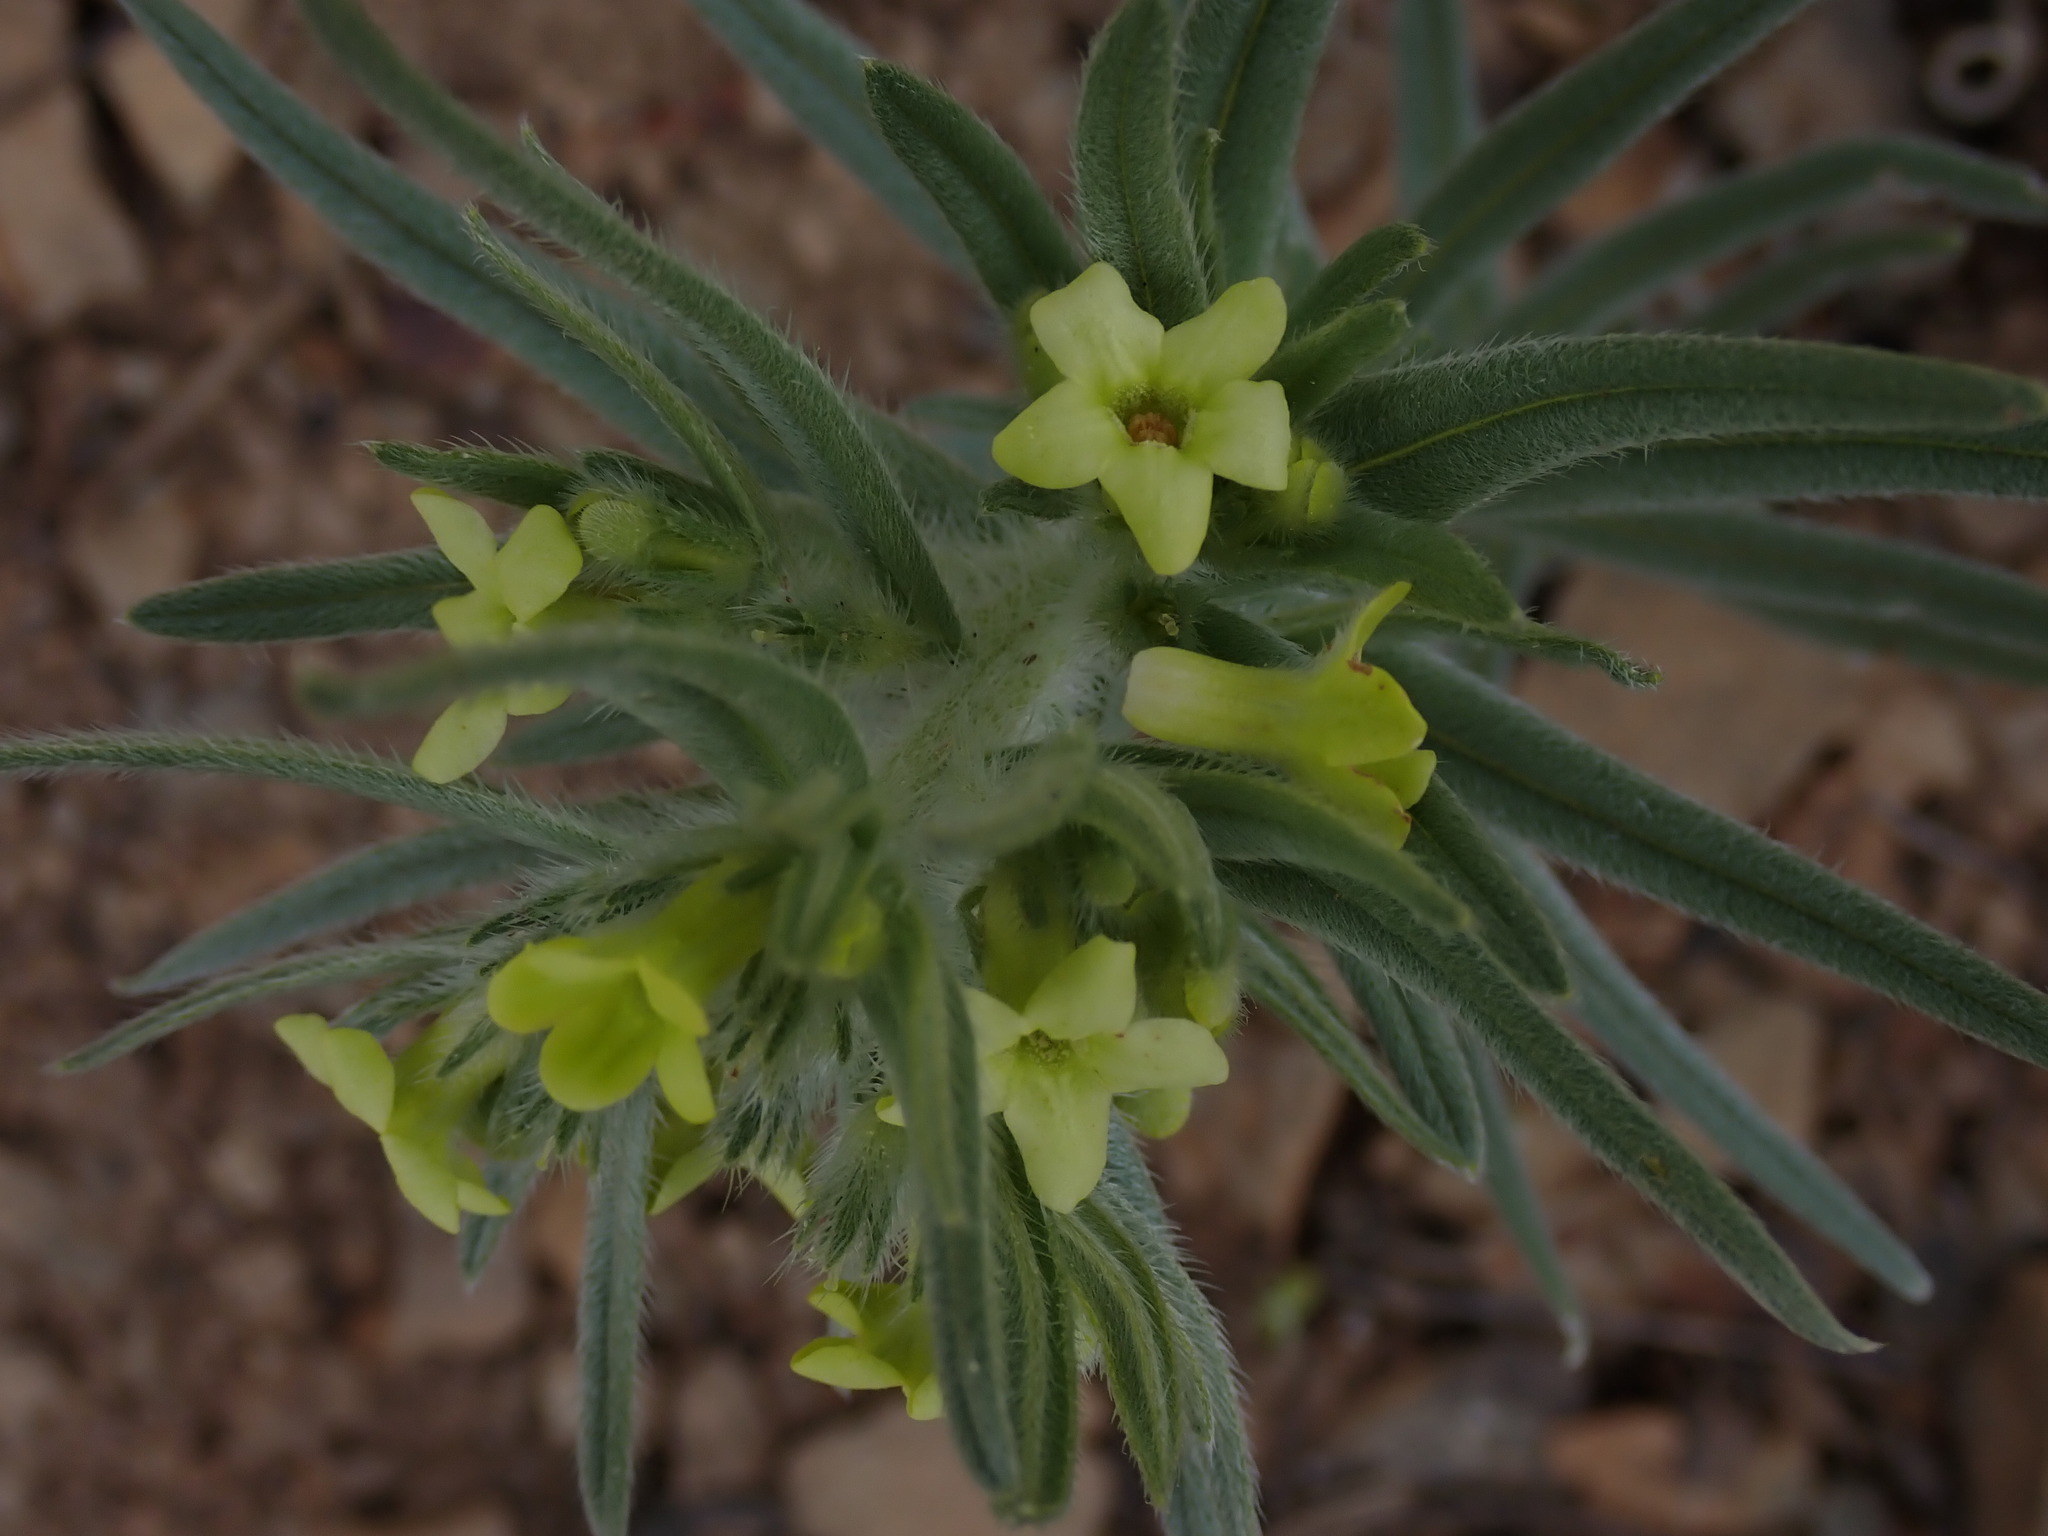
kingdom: Plantae
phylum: Tracheophyta
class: Magnoliopsida
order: Boraginales
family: Boraginaceae
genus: Lithospermum
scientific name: Lithospermum ruderale
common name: Western gromwell
